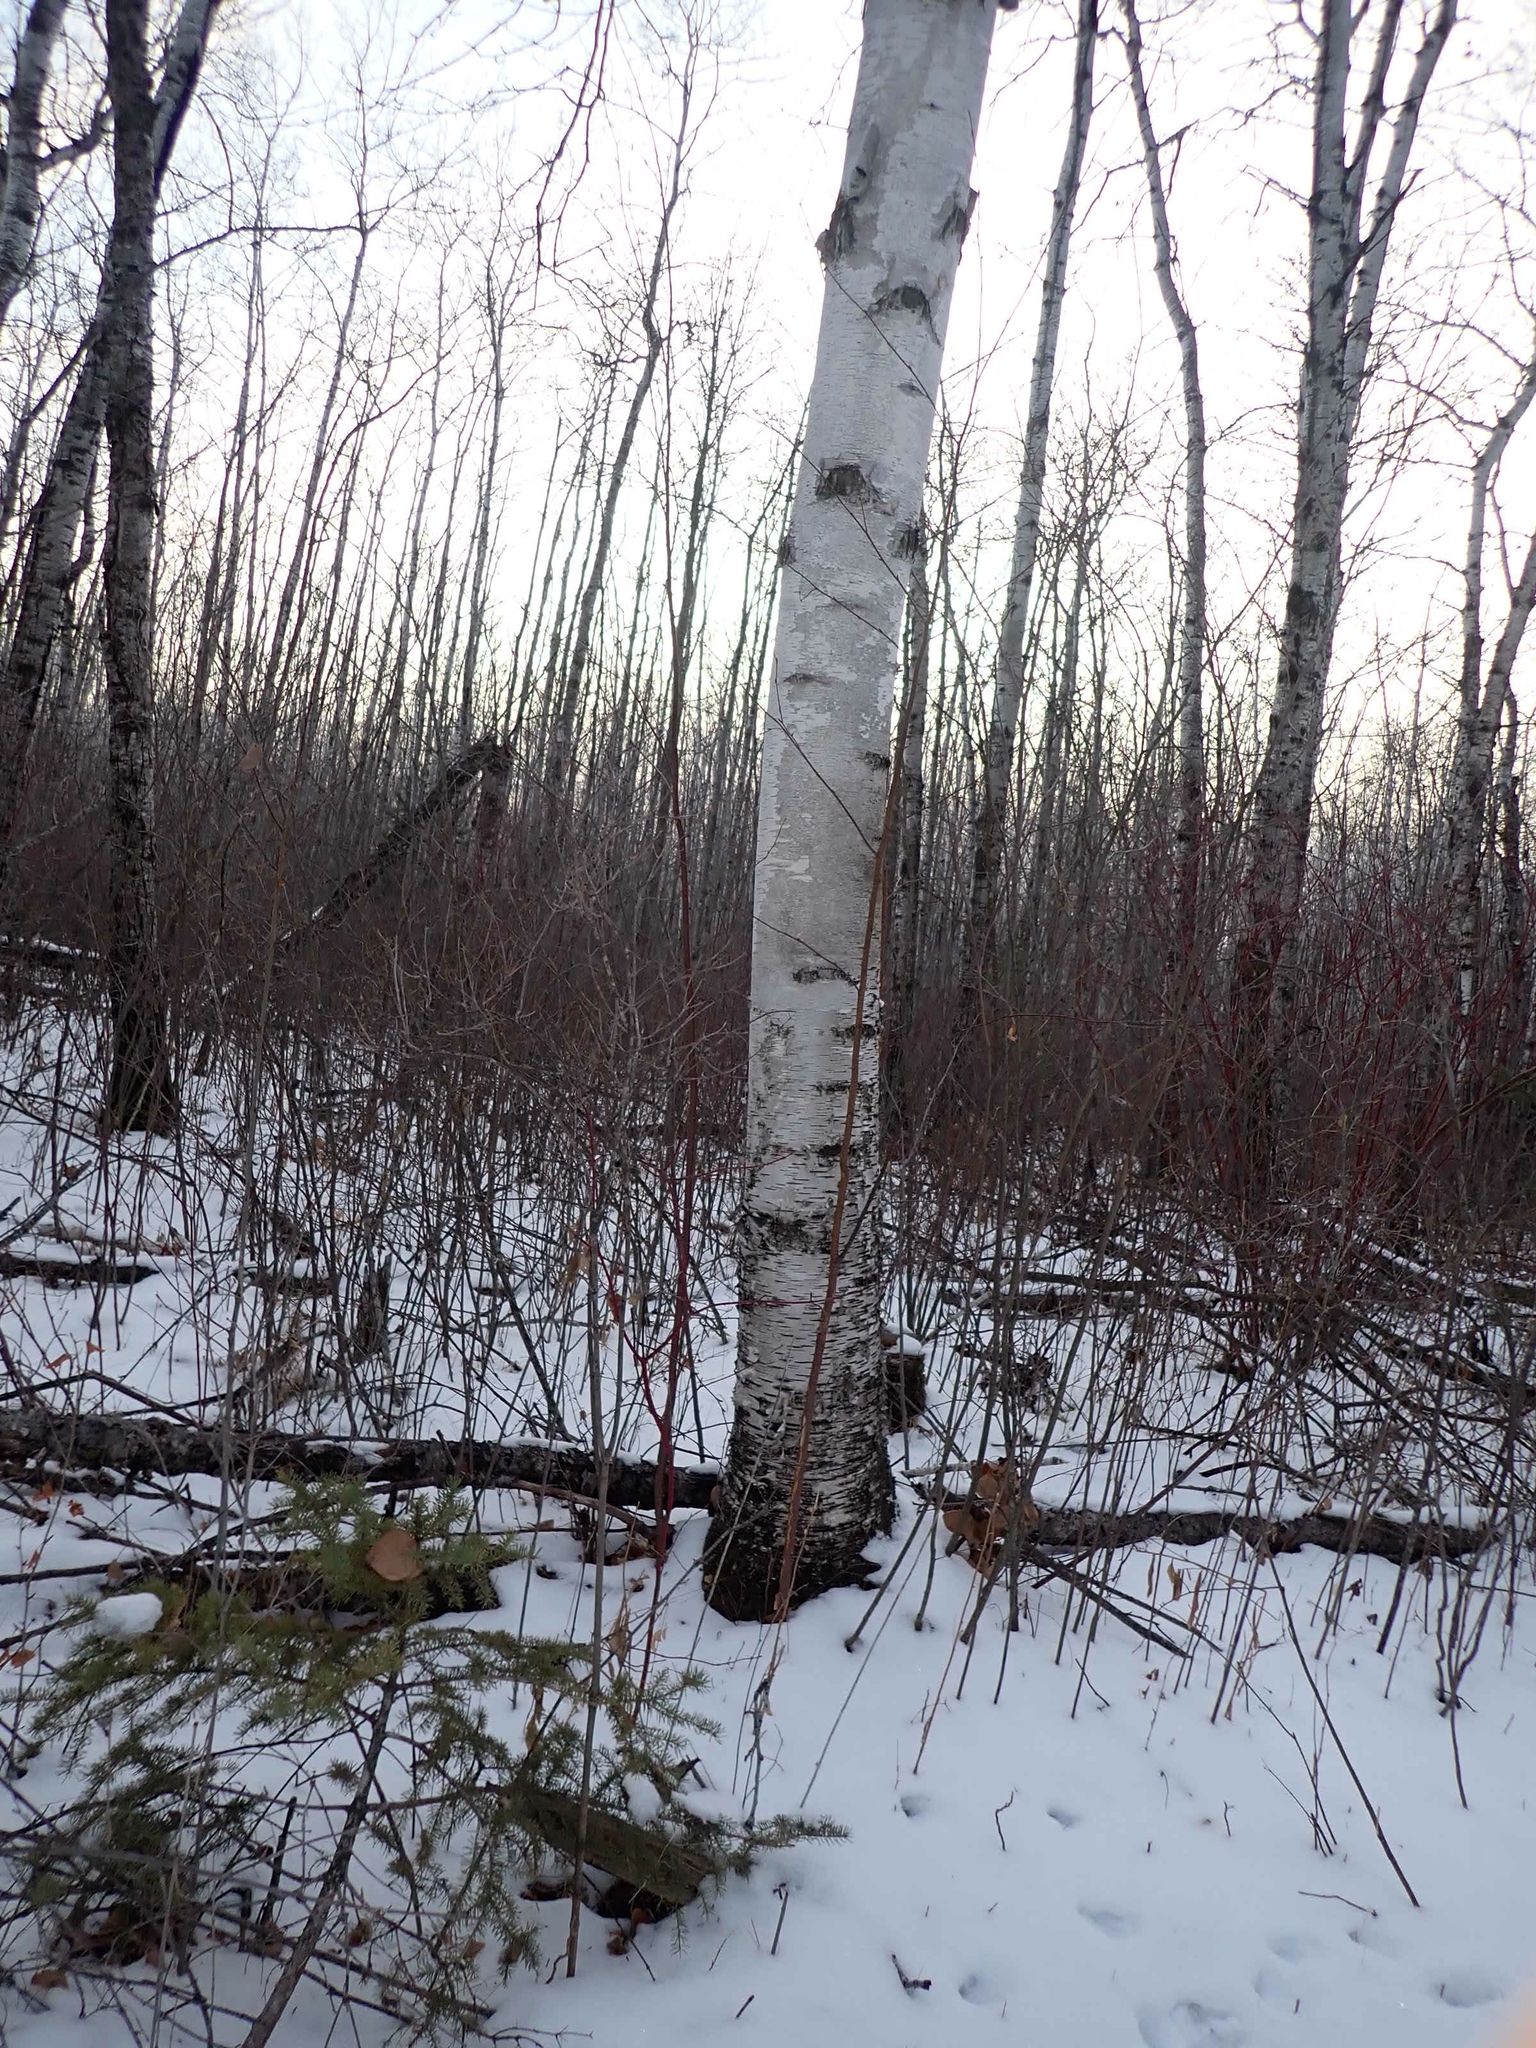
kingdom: Plantae
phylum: Tracheophyta
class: Magnoliopsida
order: Fagales
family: Betulaceae
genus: Betula
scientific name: Betula papyrifera
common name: Paper birch
